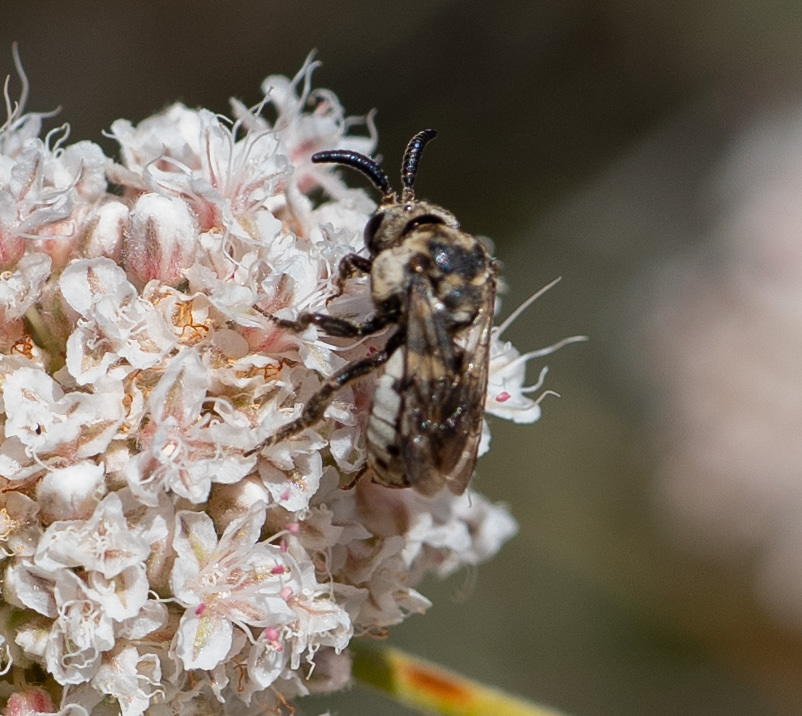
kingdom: Animalia
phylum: Arthropoda
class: Insecta
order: Hymenoptera
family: Apidae
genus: Zacosmia
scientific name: Zacosmia maculata
